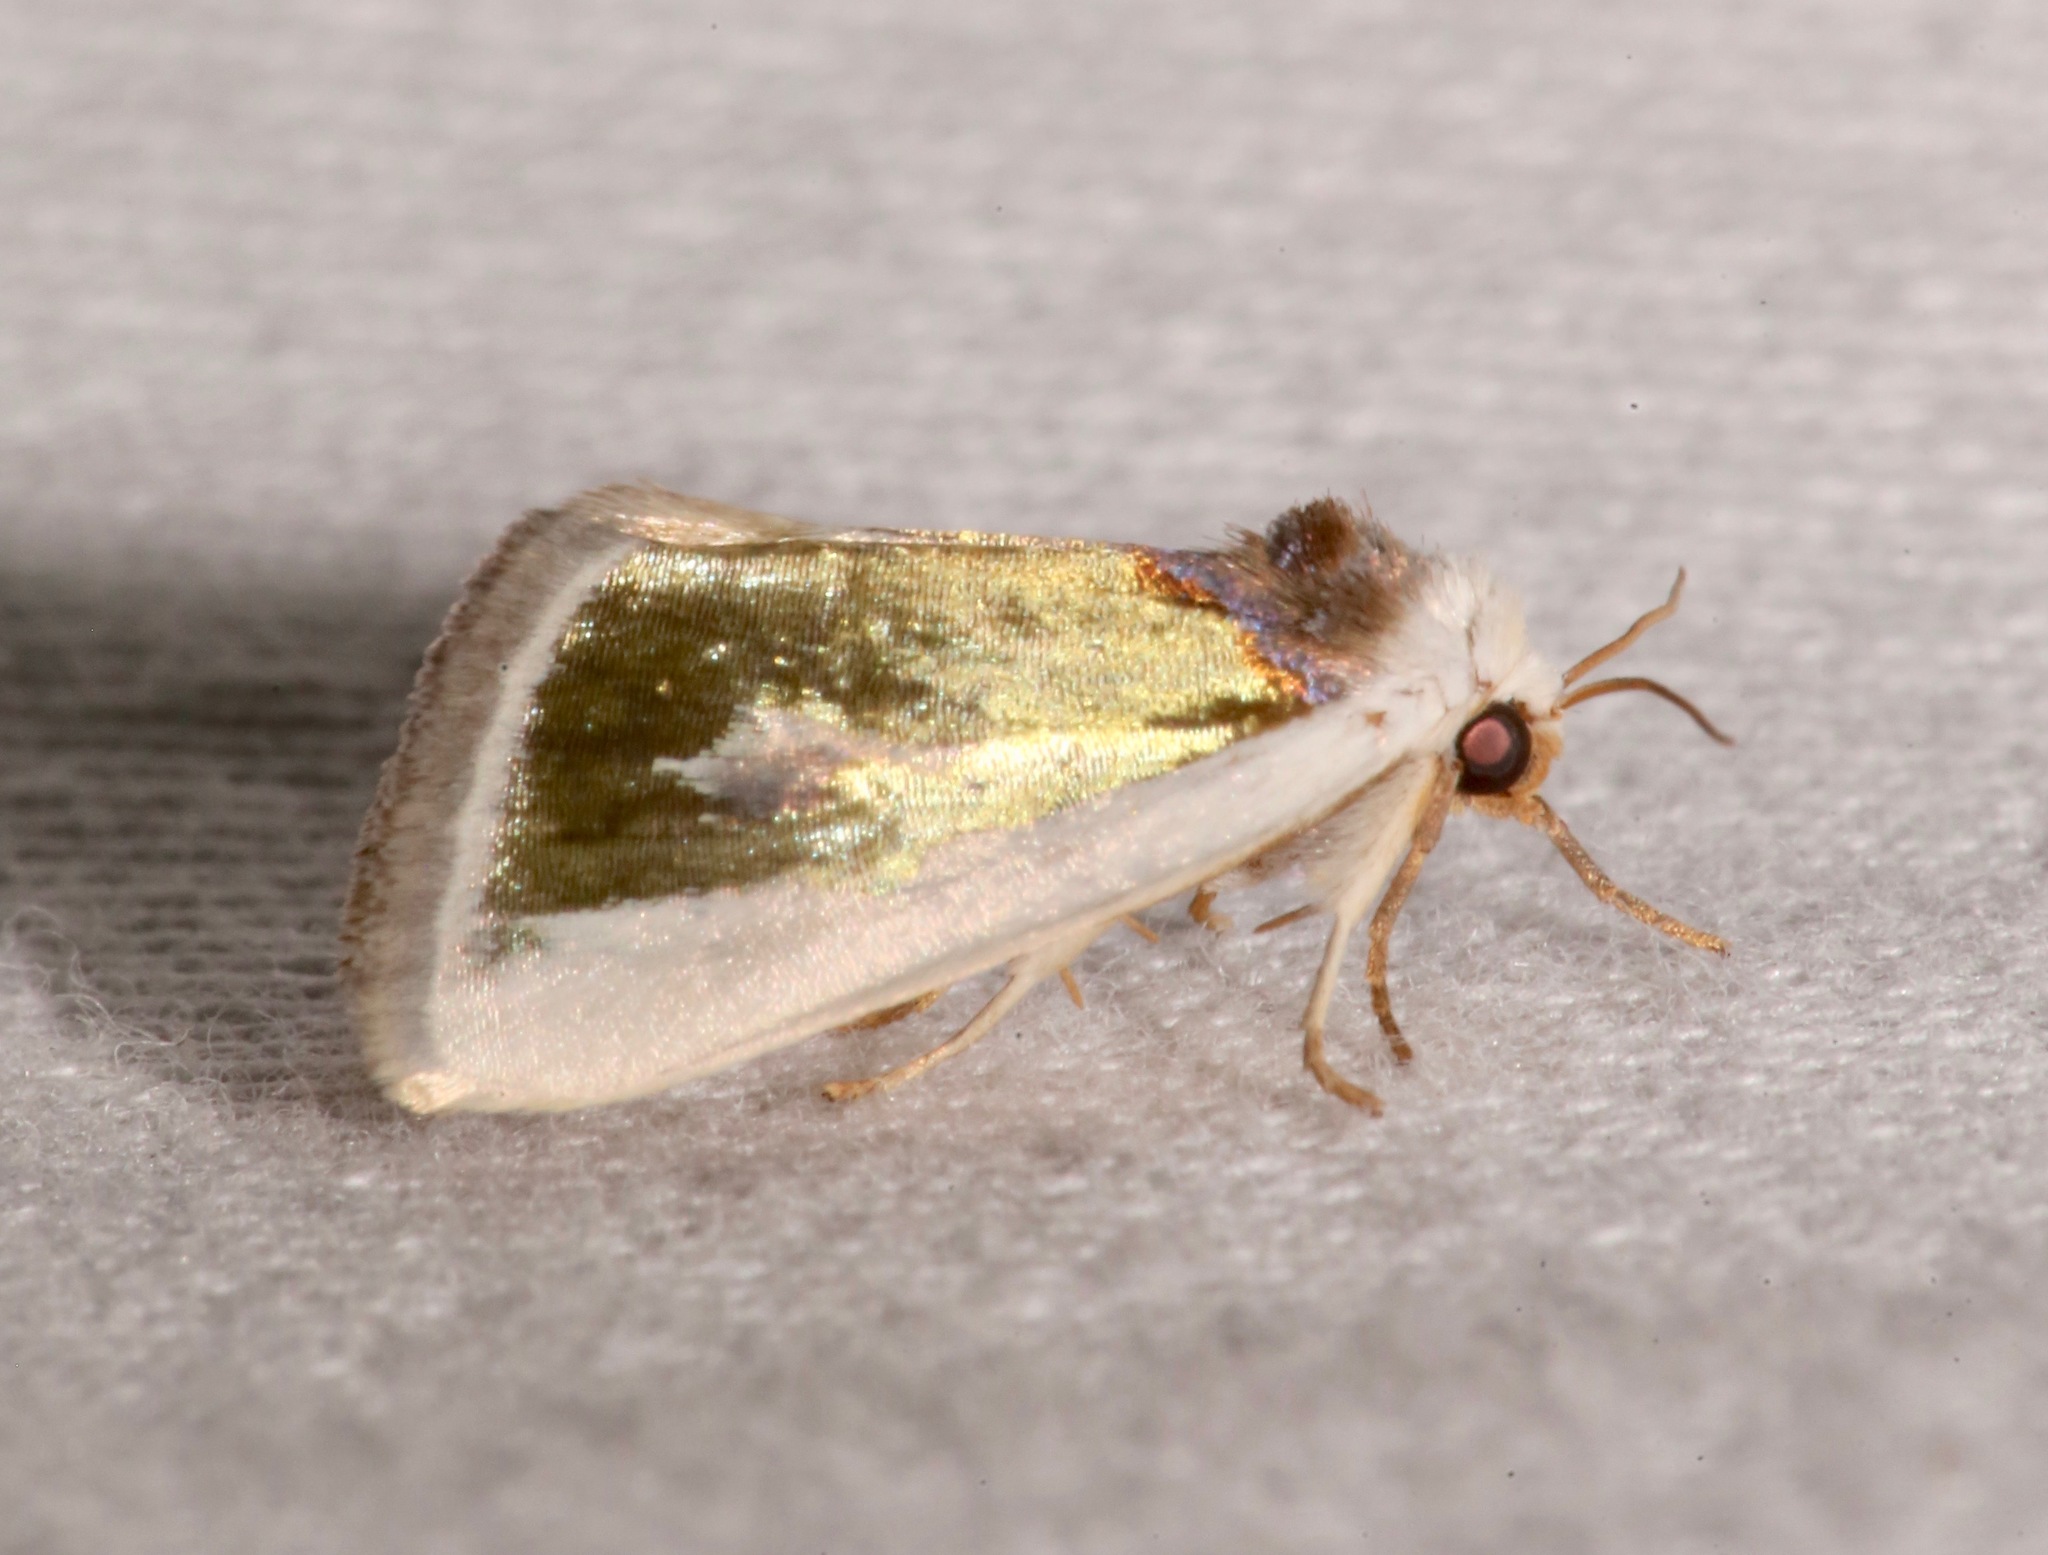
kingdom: Animalia
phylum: Arthropoda
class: Insecta
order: Lepidoptera
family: Noctuidae
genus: Neumoegenia
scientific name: Neumoegenia poetica
